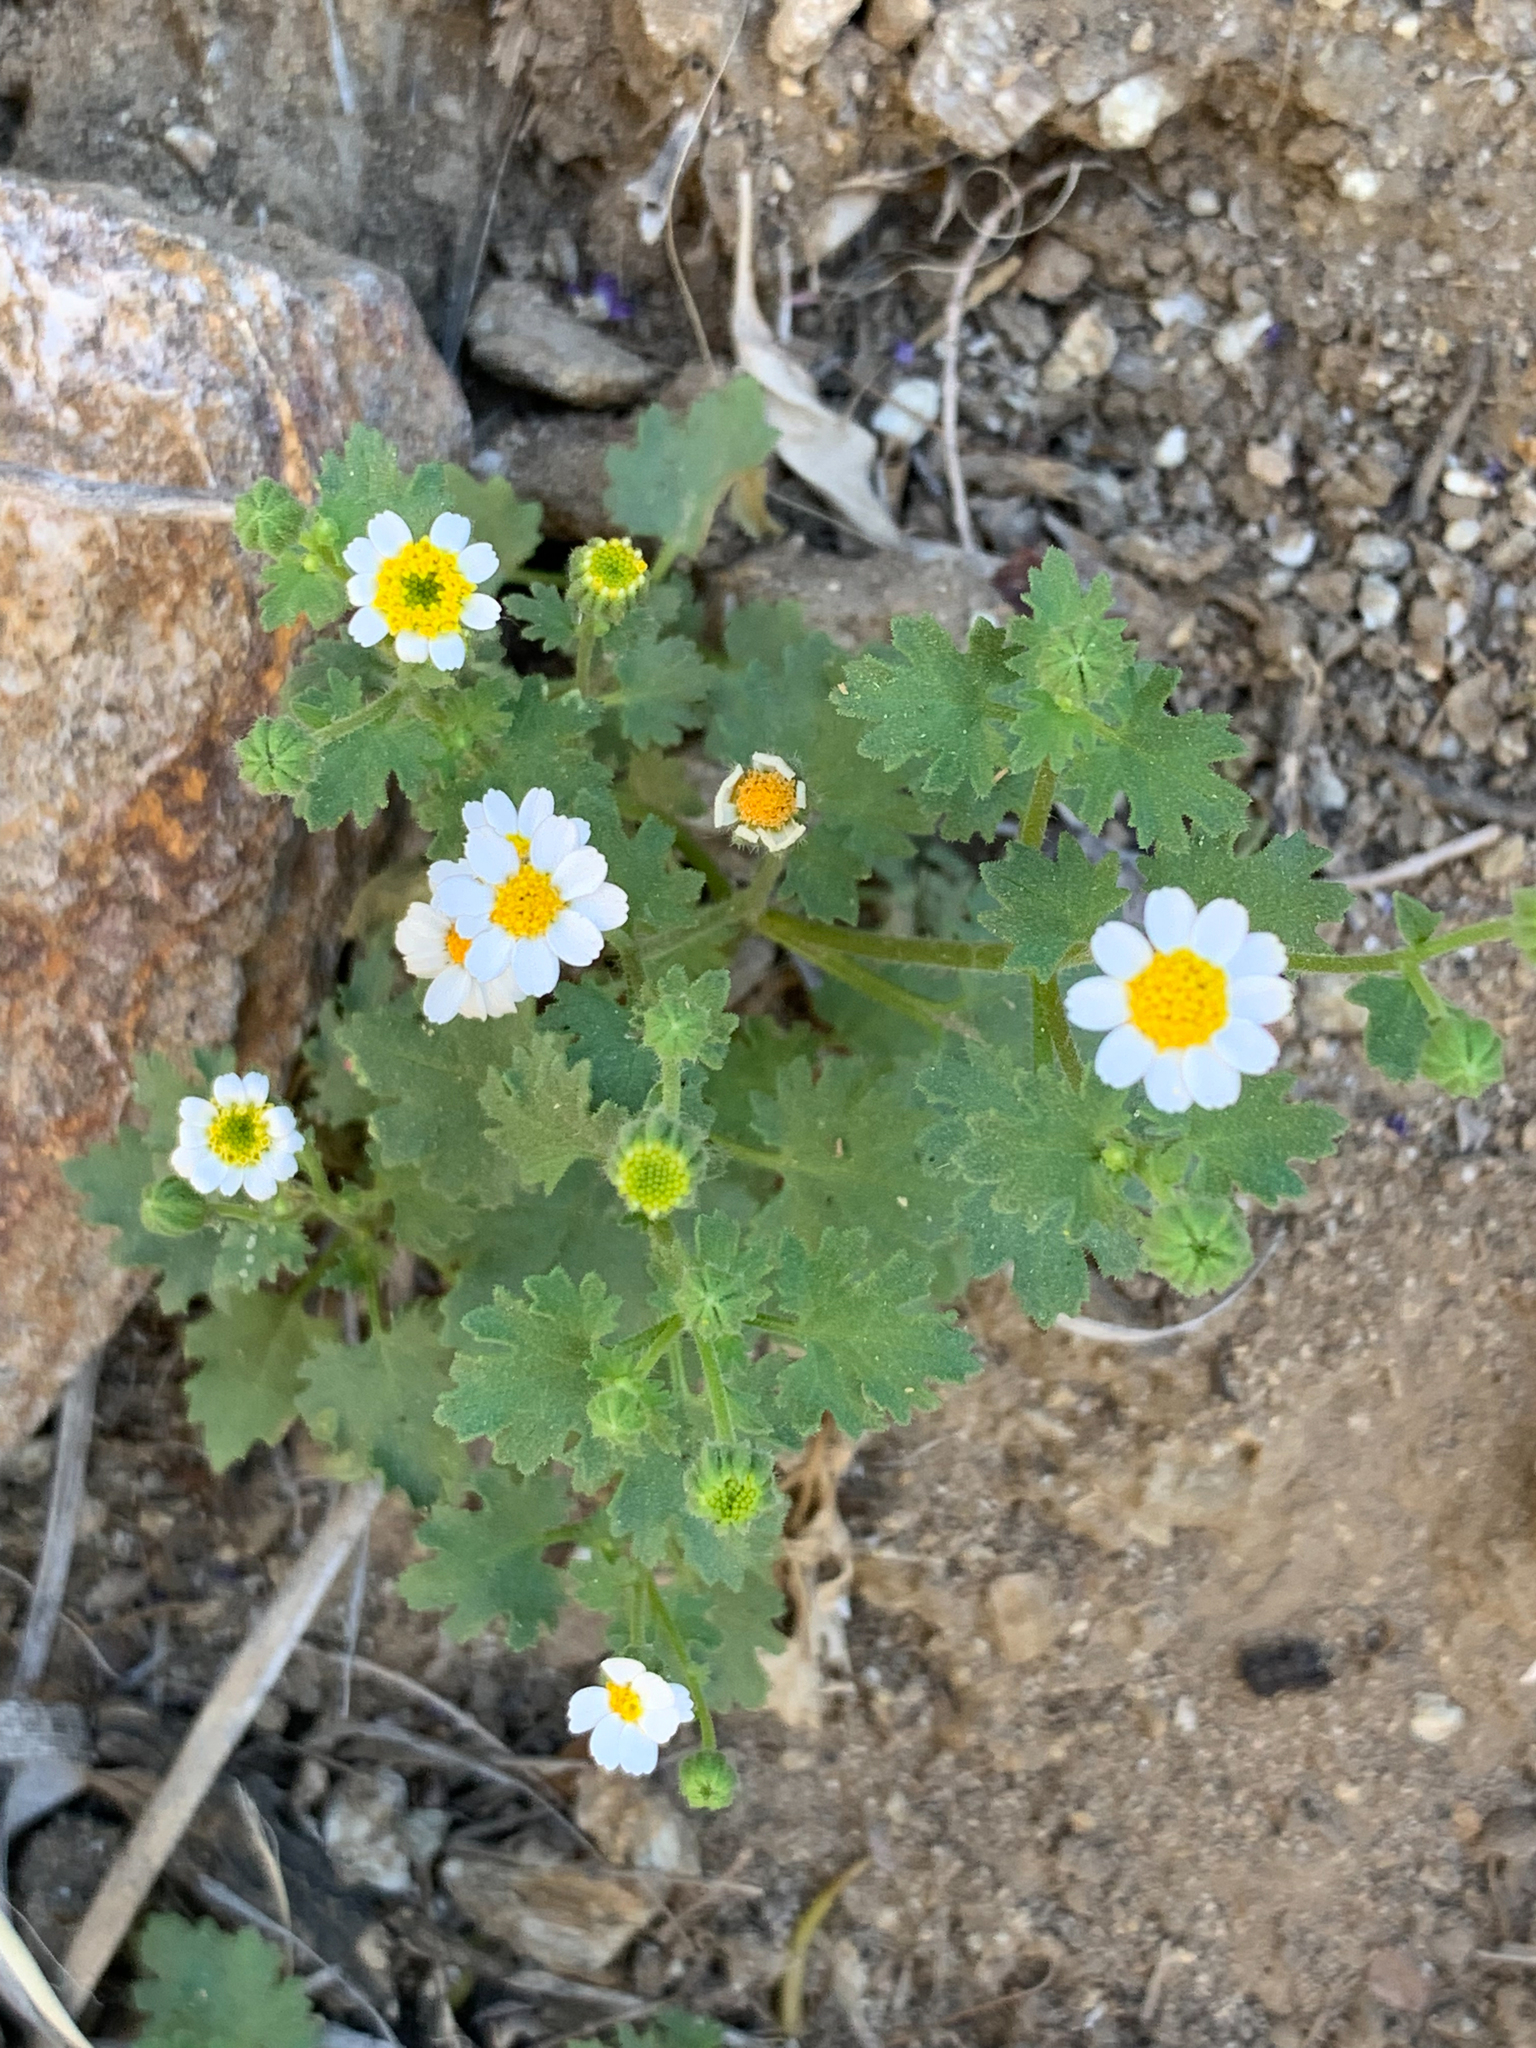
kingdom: Plantae
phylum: Tracheophyta
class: Magnoliopsida
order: Asterales
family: Asteraceae
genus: Laphamia
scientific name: Laphamia emoryi
